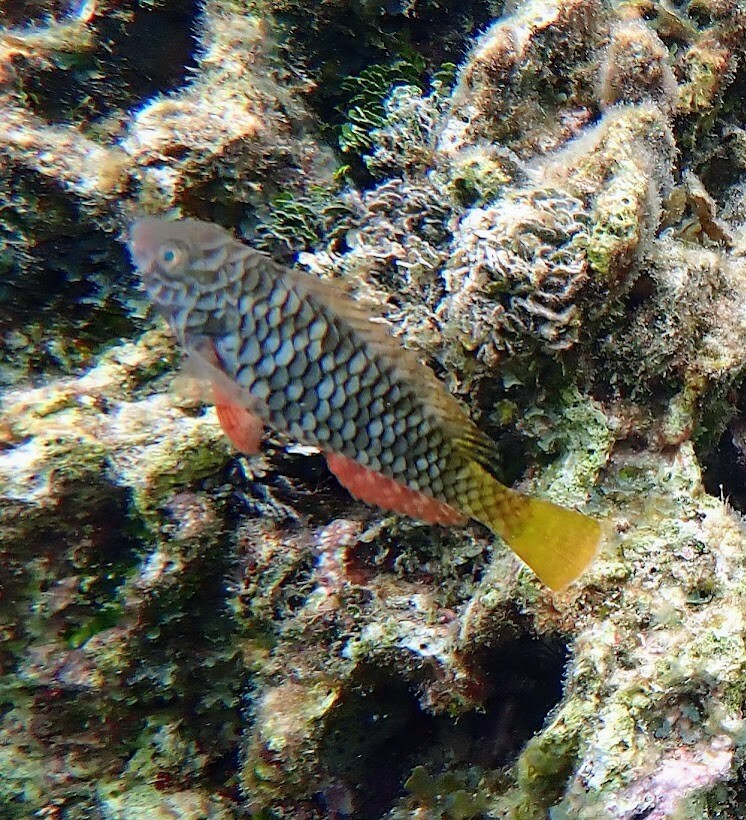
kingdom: Animalia
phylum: Chordata
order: Perciformes
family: Scaridae
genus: Sparisoma
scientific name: Sparisoma rubripinne
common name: Redfin parrotfish
